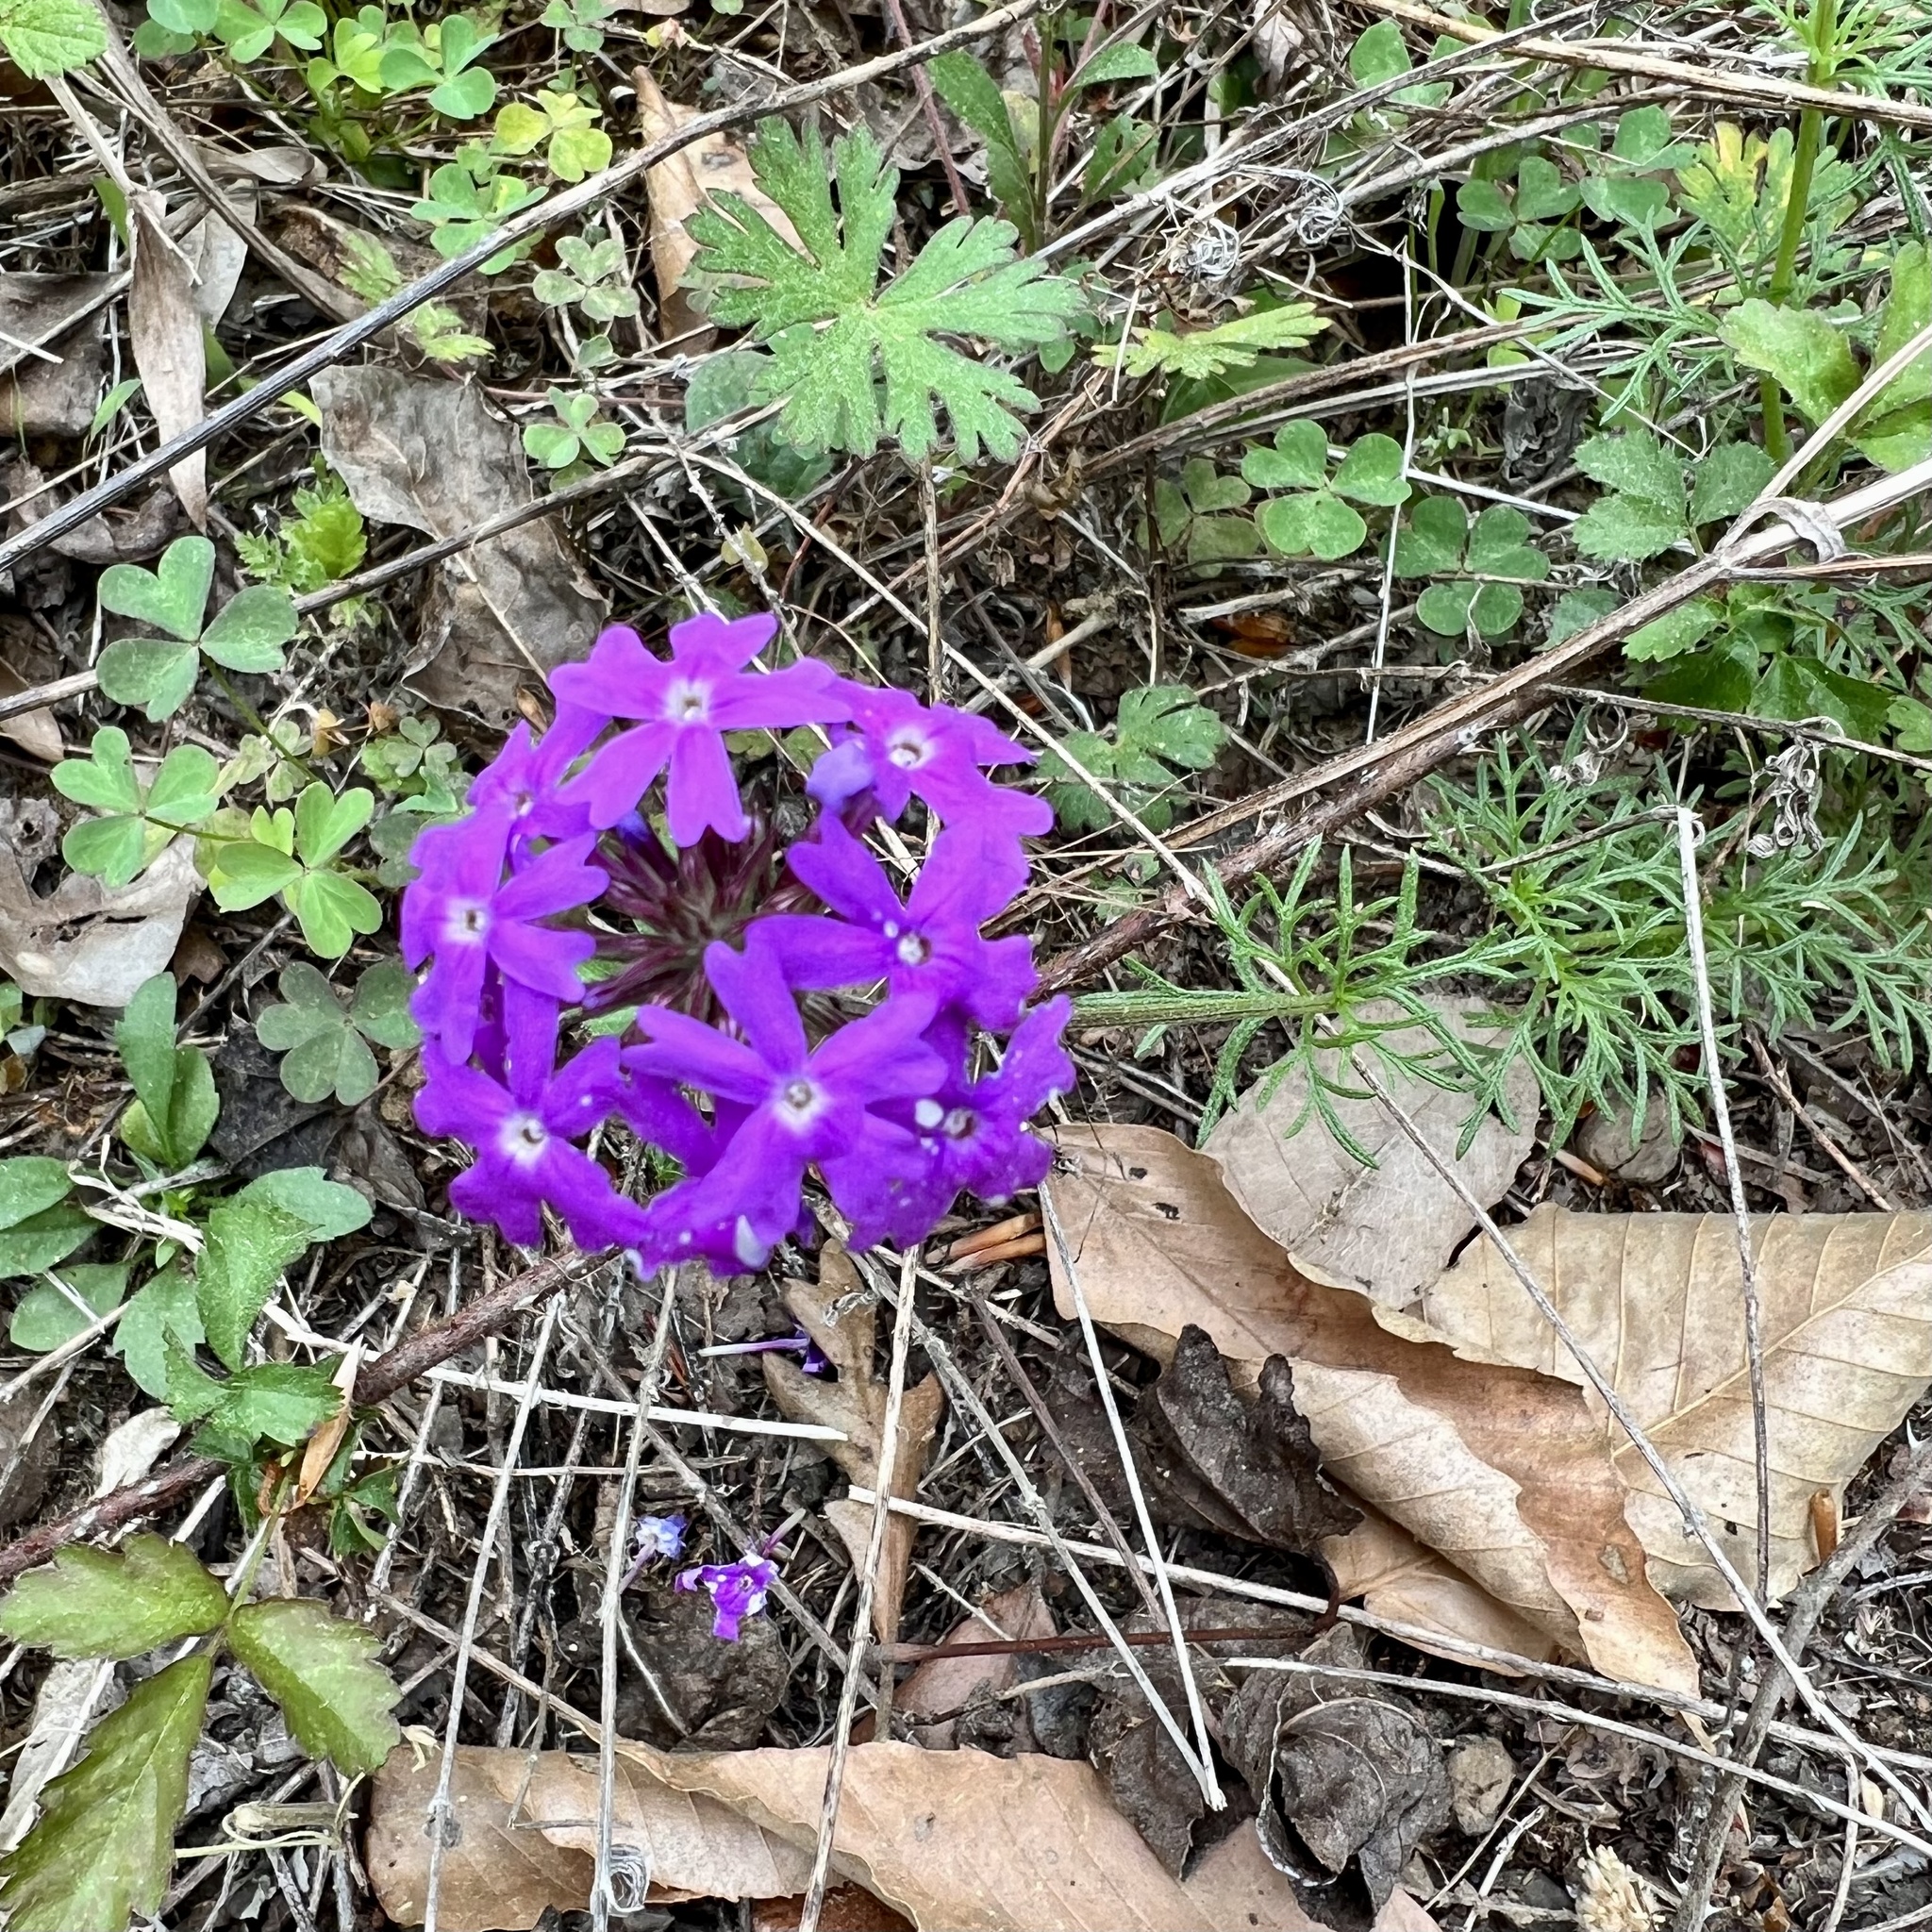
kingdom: Plantae
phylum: Tracheophyta
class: Magnoliopsida
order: Lamiales
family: Verbenaceae
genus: Verbena
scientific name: Verbena bipinnatifida
